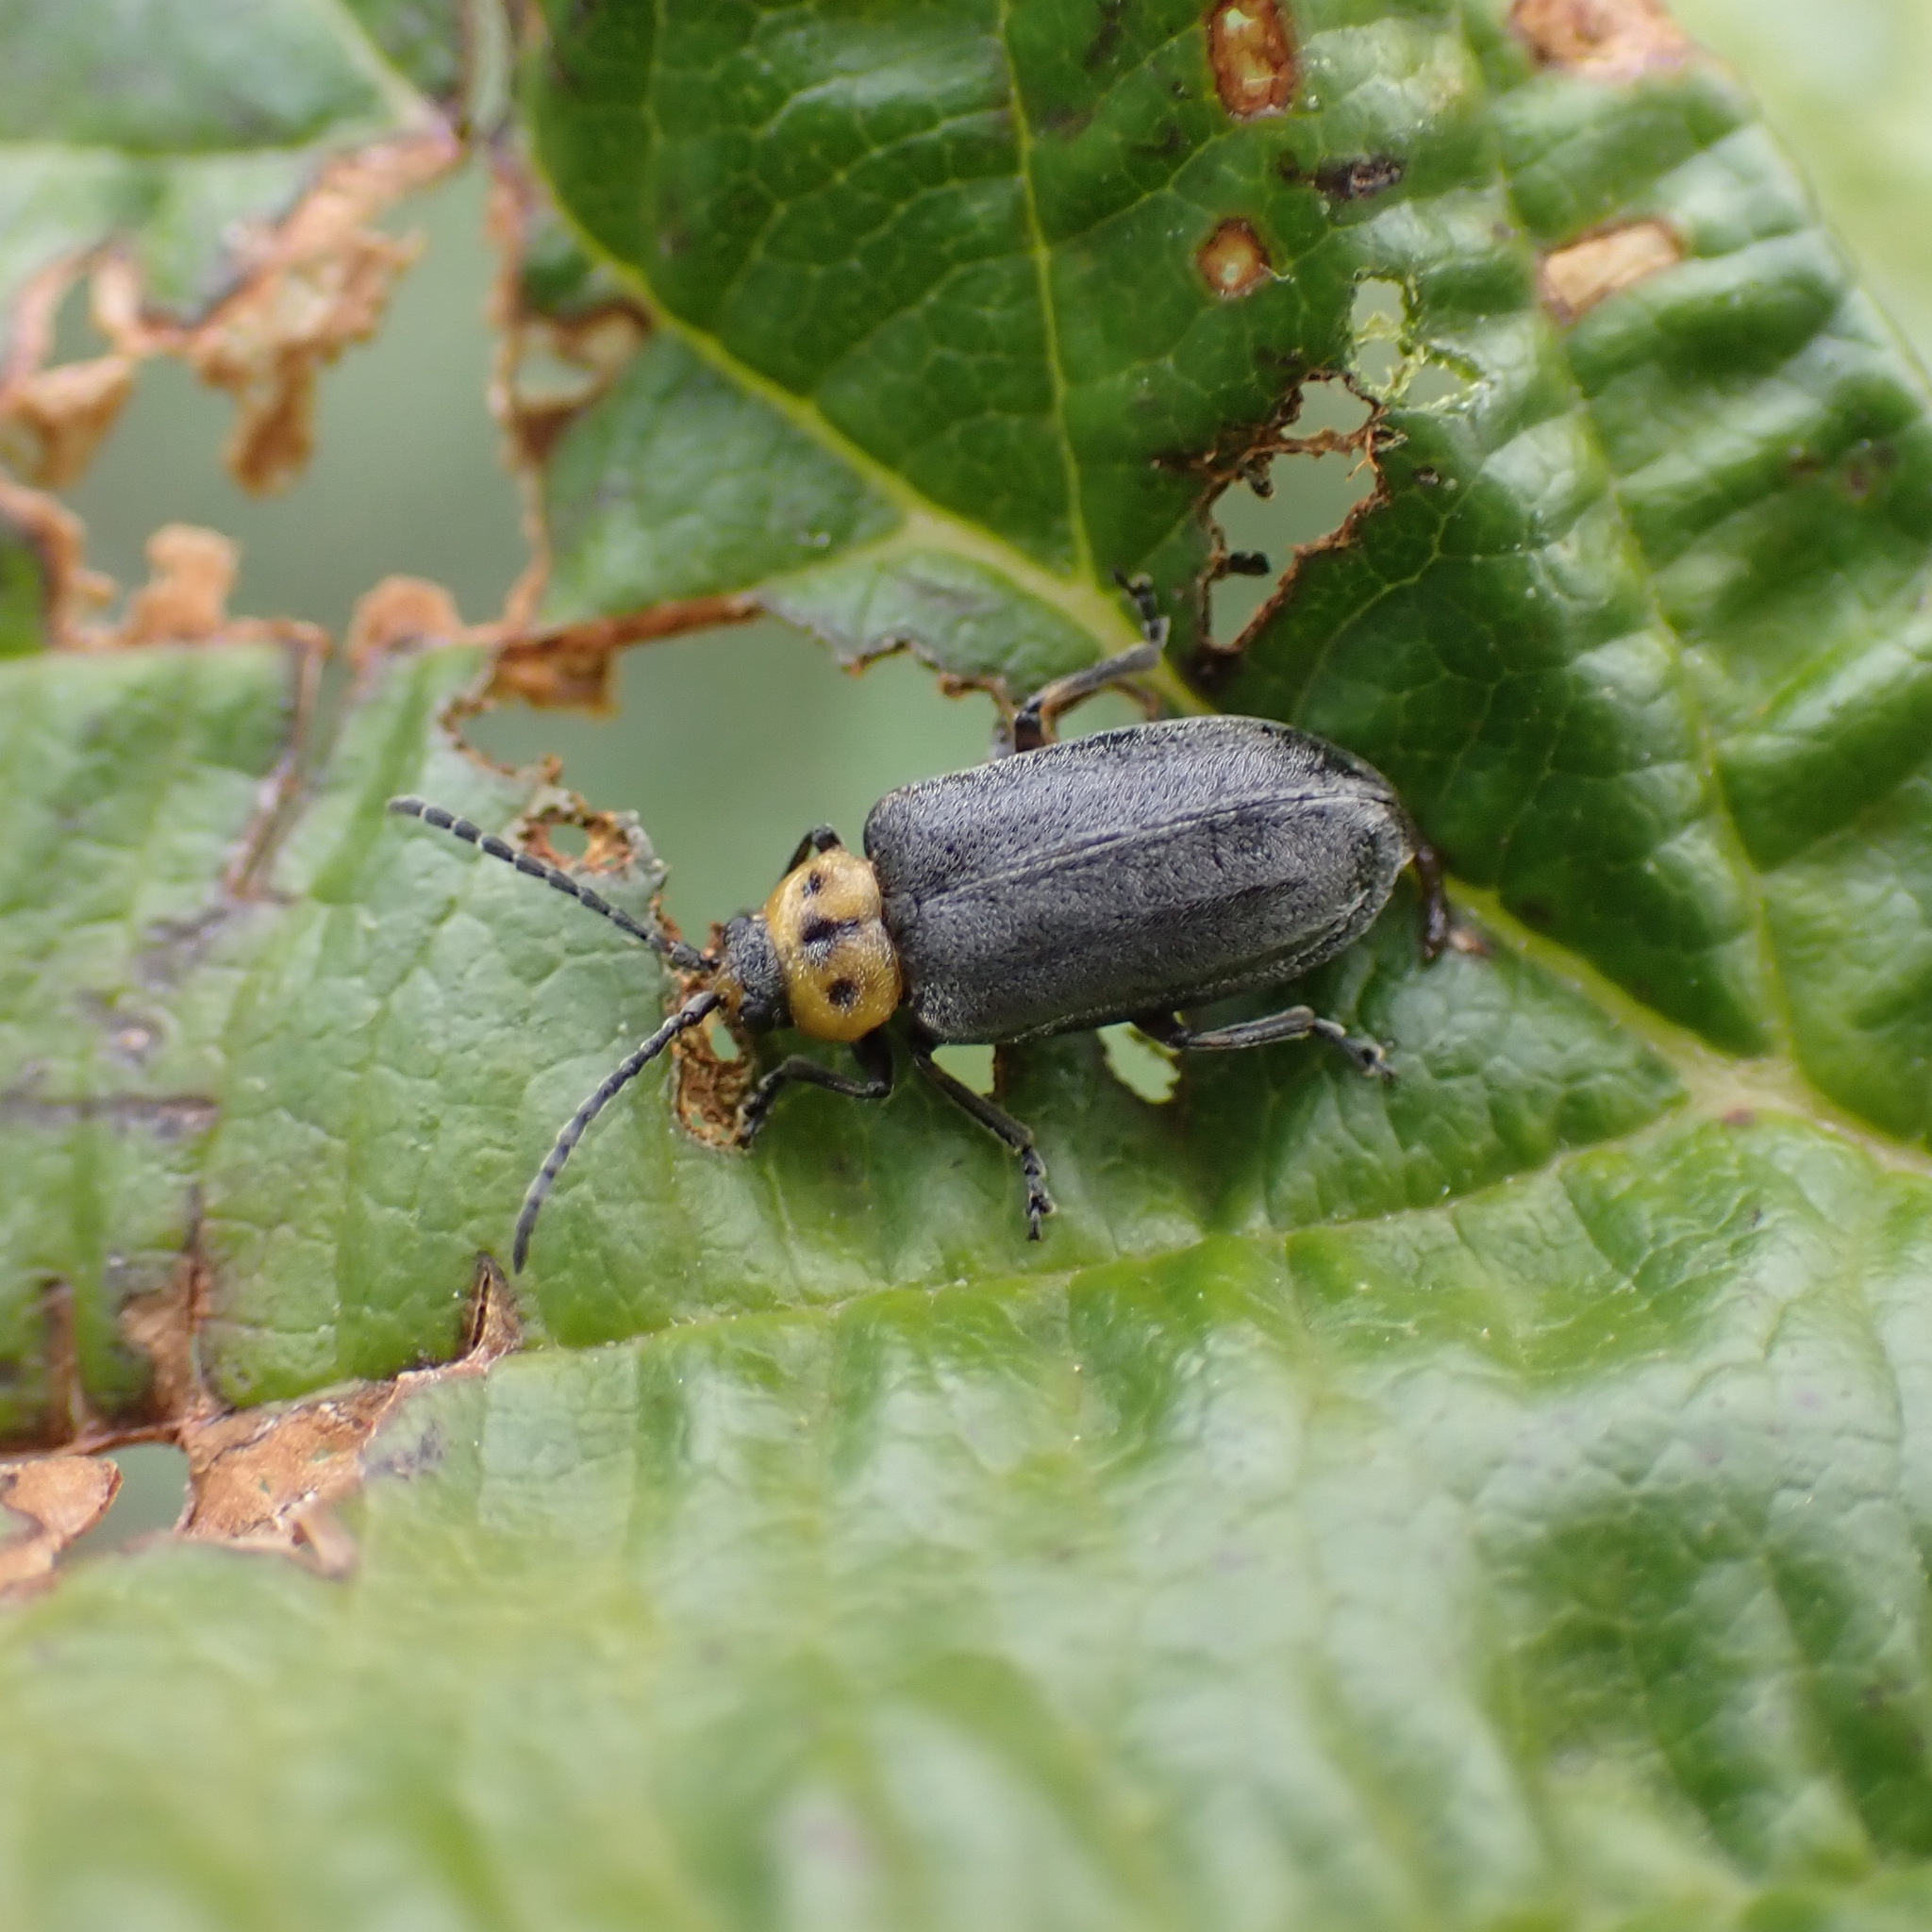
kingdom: Animalia
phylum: Arthropoda
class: Insecta
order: Coleoptera
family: Chrysomelidae
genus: Tricholochmaea
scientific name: Tricholochmaea punctipennis
